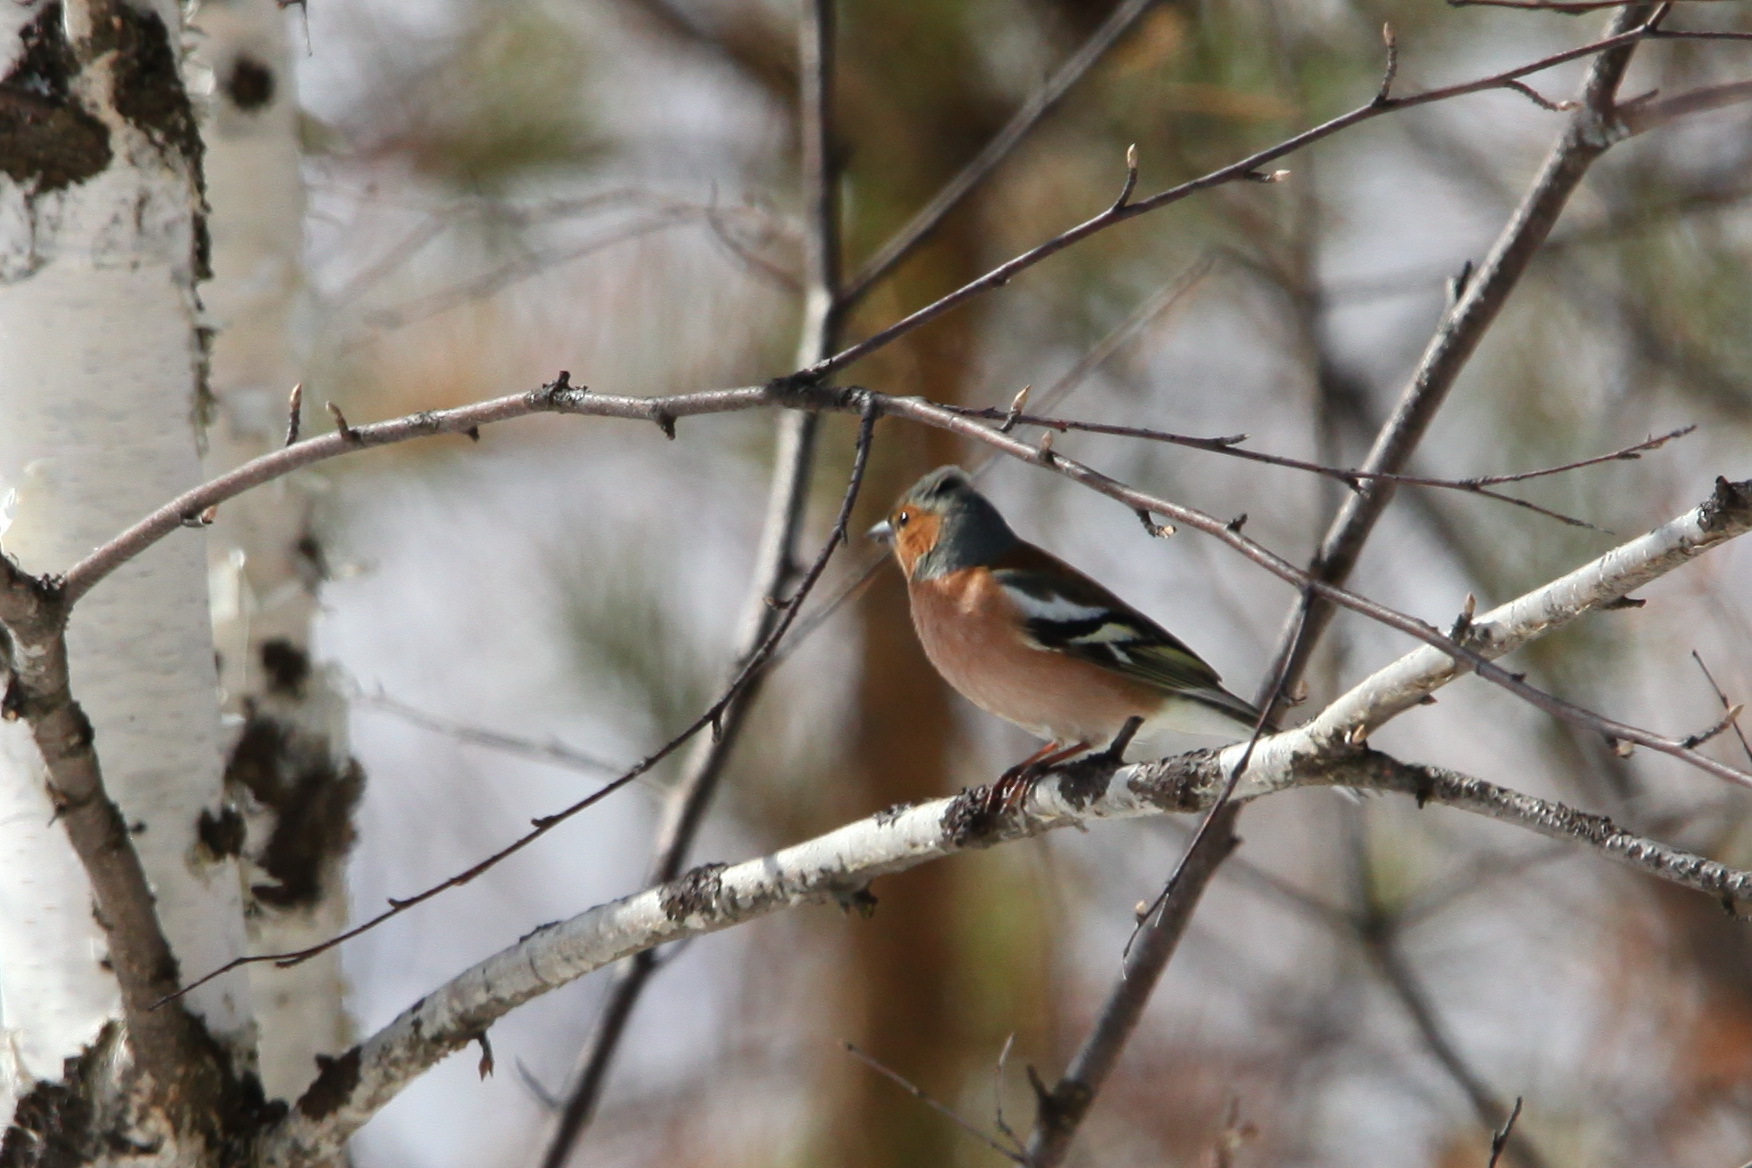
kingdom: Animalia
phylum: Chordata
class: Aves
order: Passeriformes
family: Fringillidae
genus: Fringilla
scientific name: Fringilla coelebs
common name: Common chaffinch
